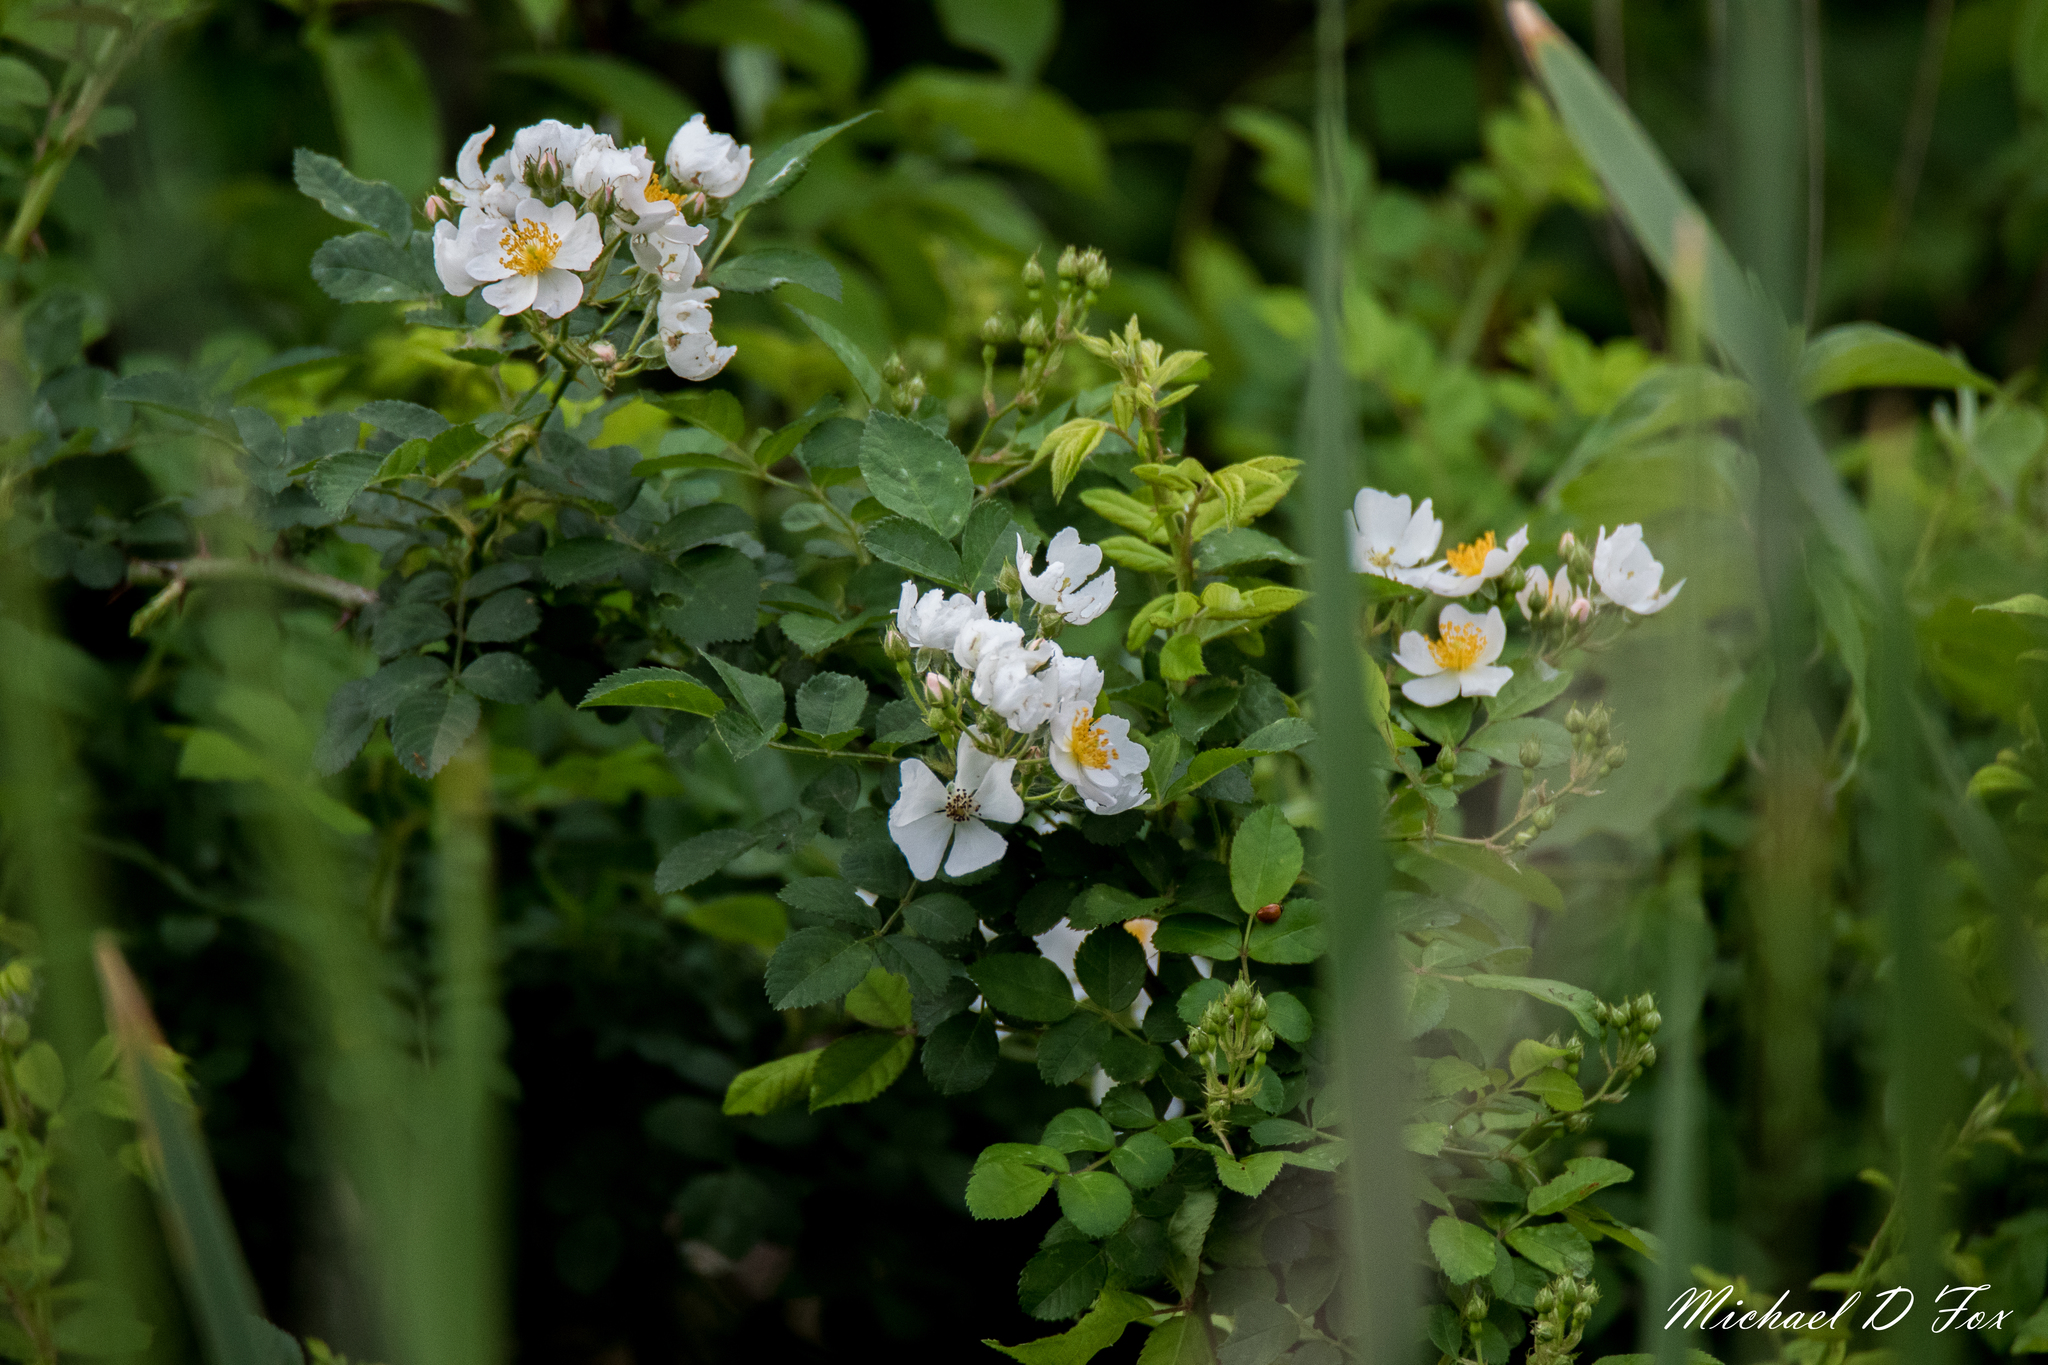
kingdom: Plantae
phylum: Tracheophyta
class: Magnoliopsida
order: Rosales
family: Rosaceae
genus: Rosa
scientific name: Rosa multiflora
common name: Multiflora rose
